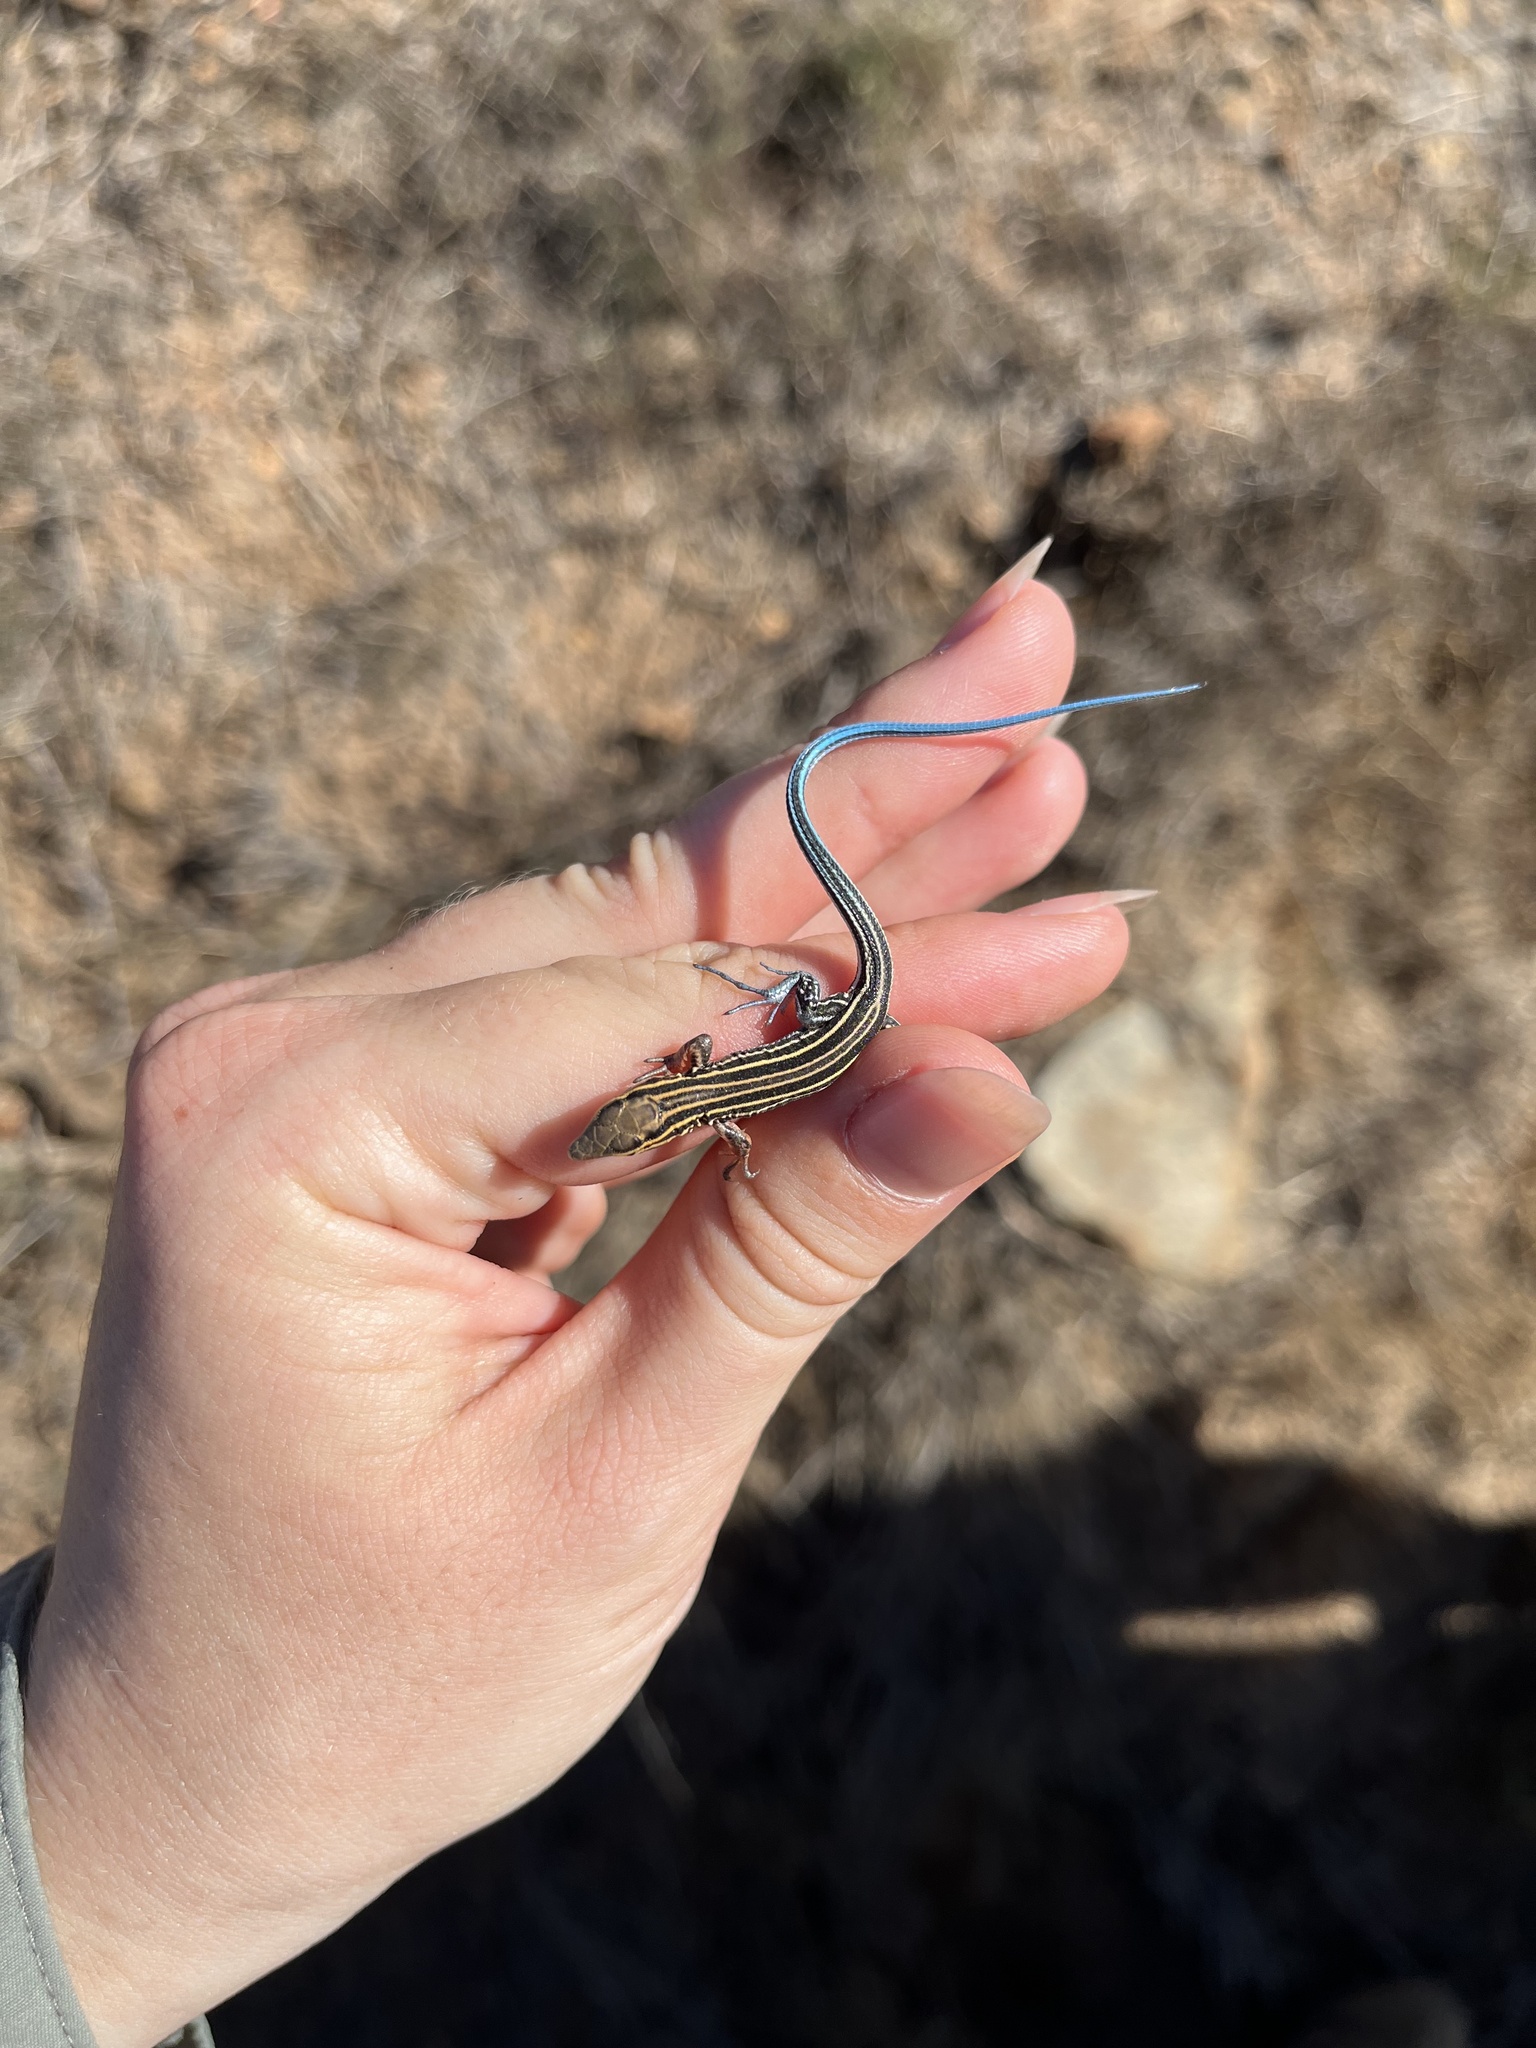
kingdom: Animalia
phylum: Chordata
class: Squamata
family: Teiidae
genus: Aspidoscelis
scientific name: Aspidoscelis hyperythrus
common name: Orange-throated race-runner
